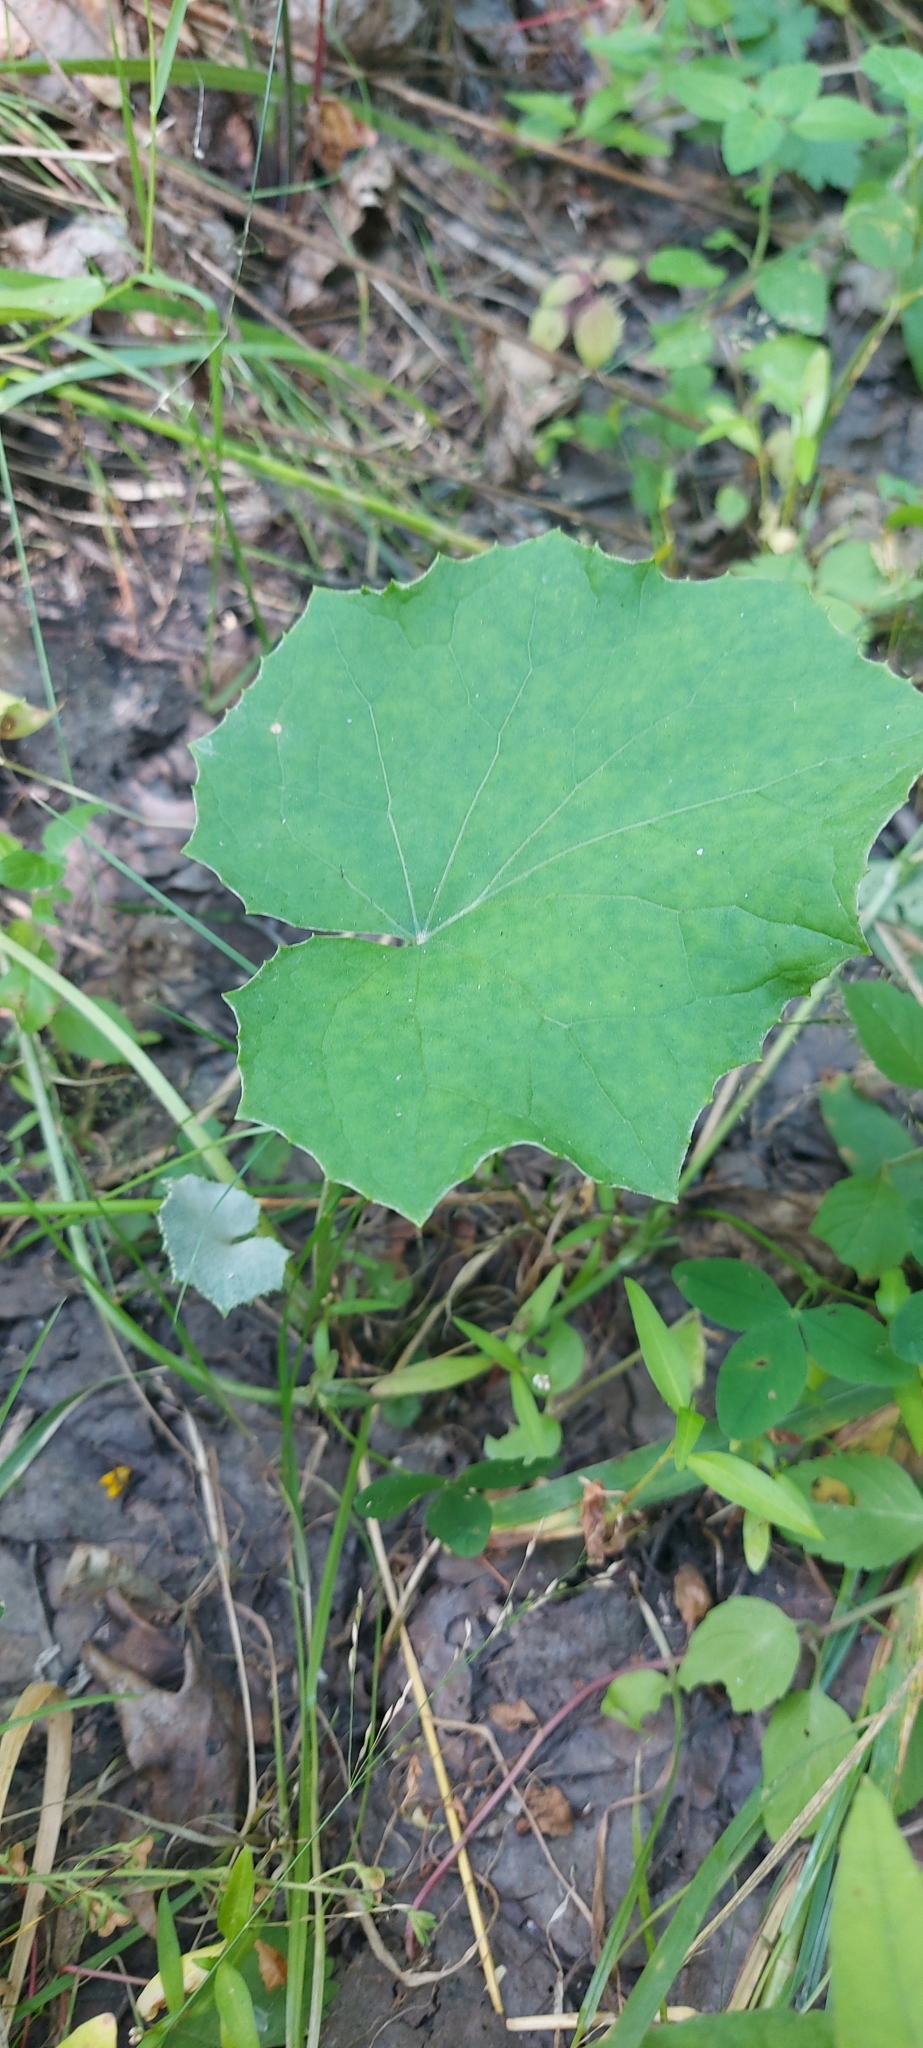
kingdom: Plantae
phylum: Tracheophyta
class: Magnoliopsida
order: Asterales
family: Asteraceae
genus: Tussilago
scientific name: Tussilago farfara
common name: Coltsfoot
